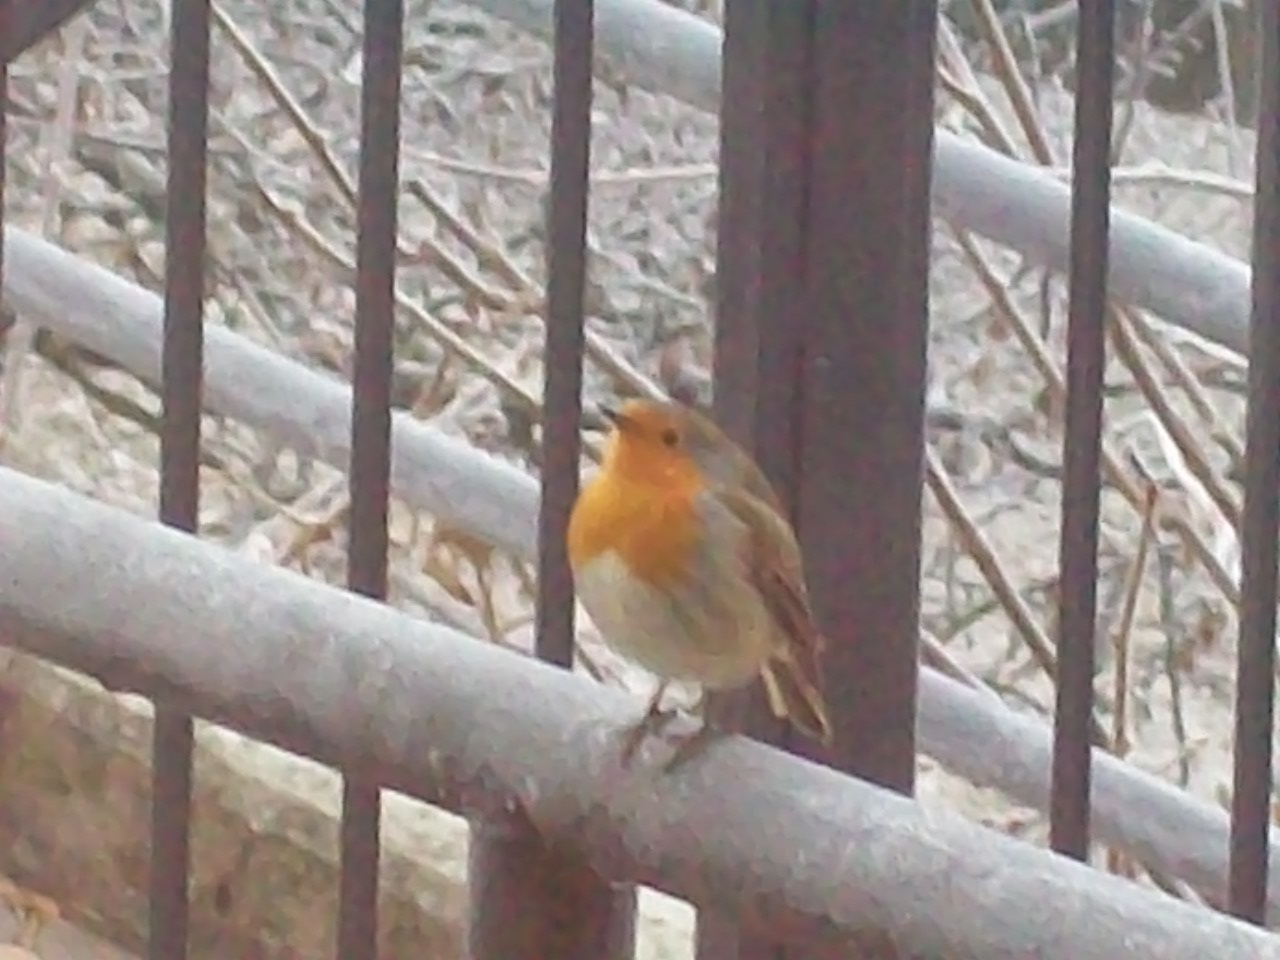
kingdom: Animalia
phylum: Chordata
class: Aves
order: Passeriformes
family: Muscicapidae
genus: Erithacus
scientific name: Erithacus rubecula
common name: European robin
